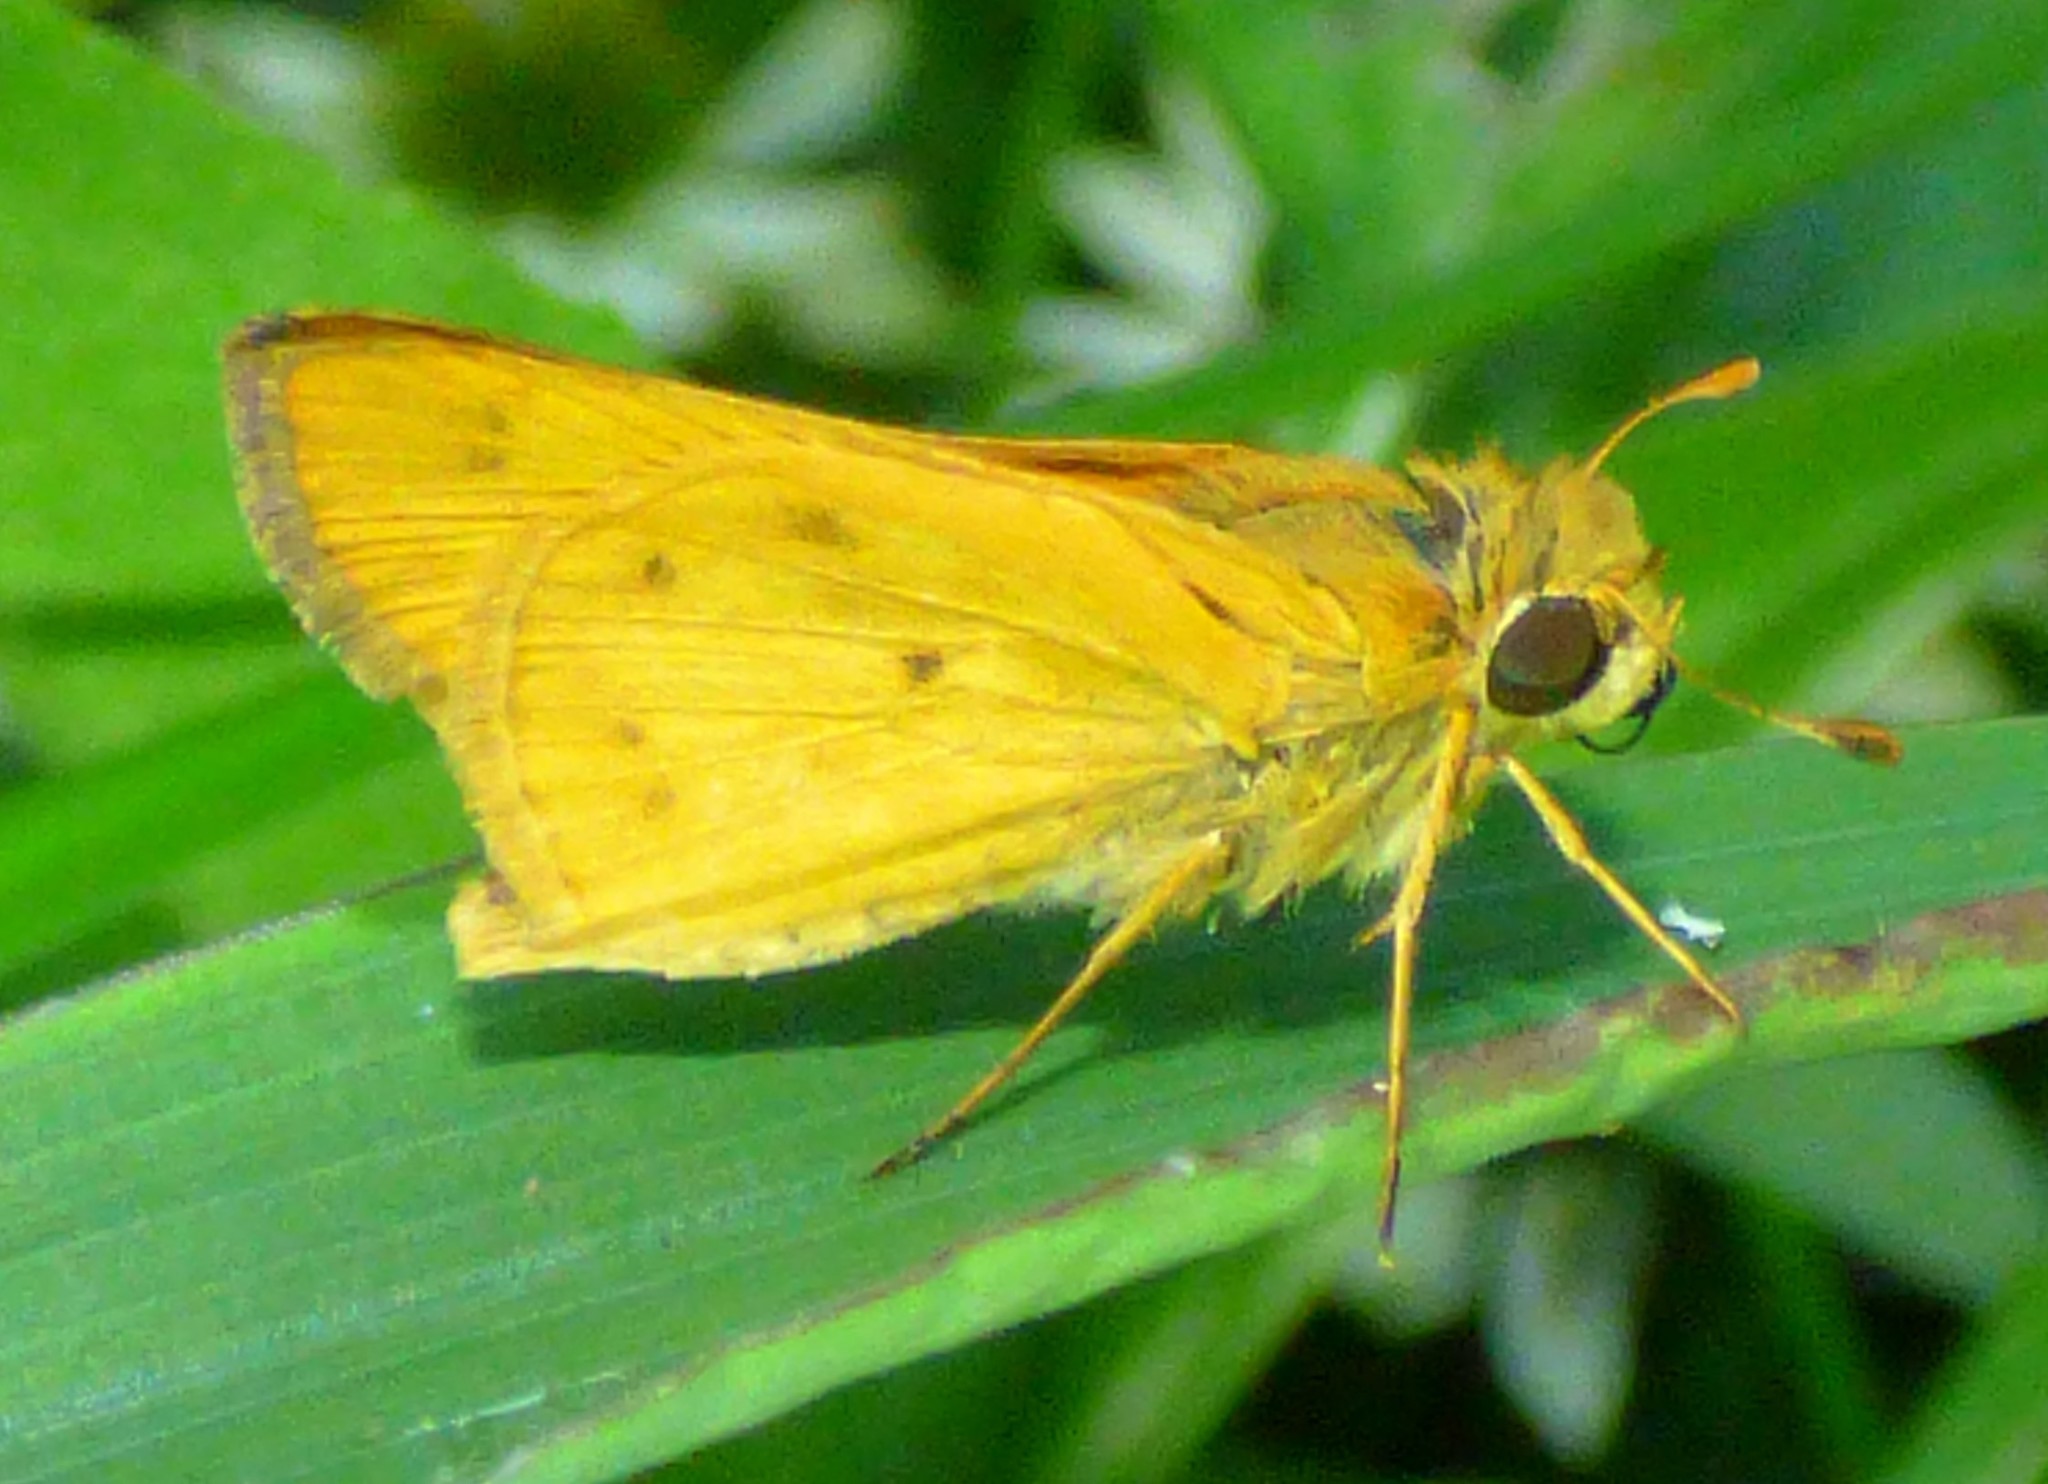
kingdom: Animalia
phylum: Arthropoda
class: Insecta
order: Lepidoptera
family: Hesperiidae
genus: Hylephila
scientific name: Hylephila phyleus
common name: Fiery skipper
